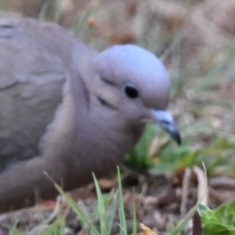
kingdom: Animalia
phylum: Chordata
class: Aves
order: Columbiformes
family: Columbidae
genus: Zenaida
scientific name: Zenaida auriculata
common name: Eared dove
